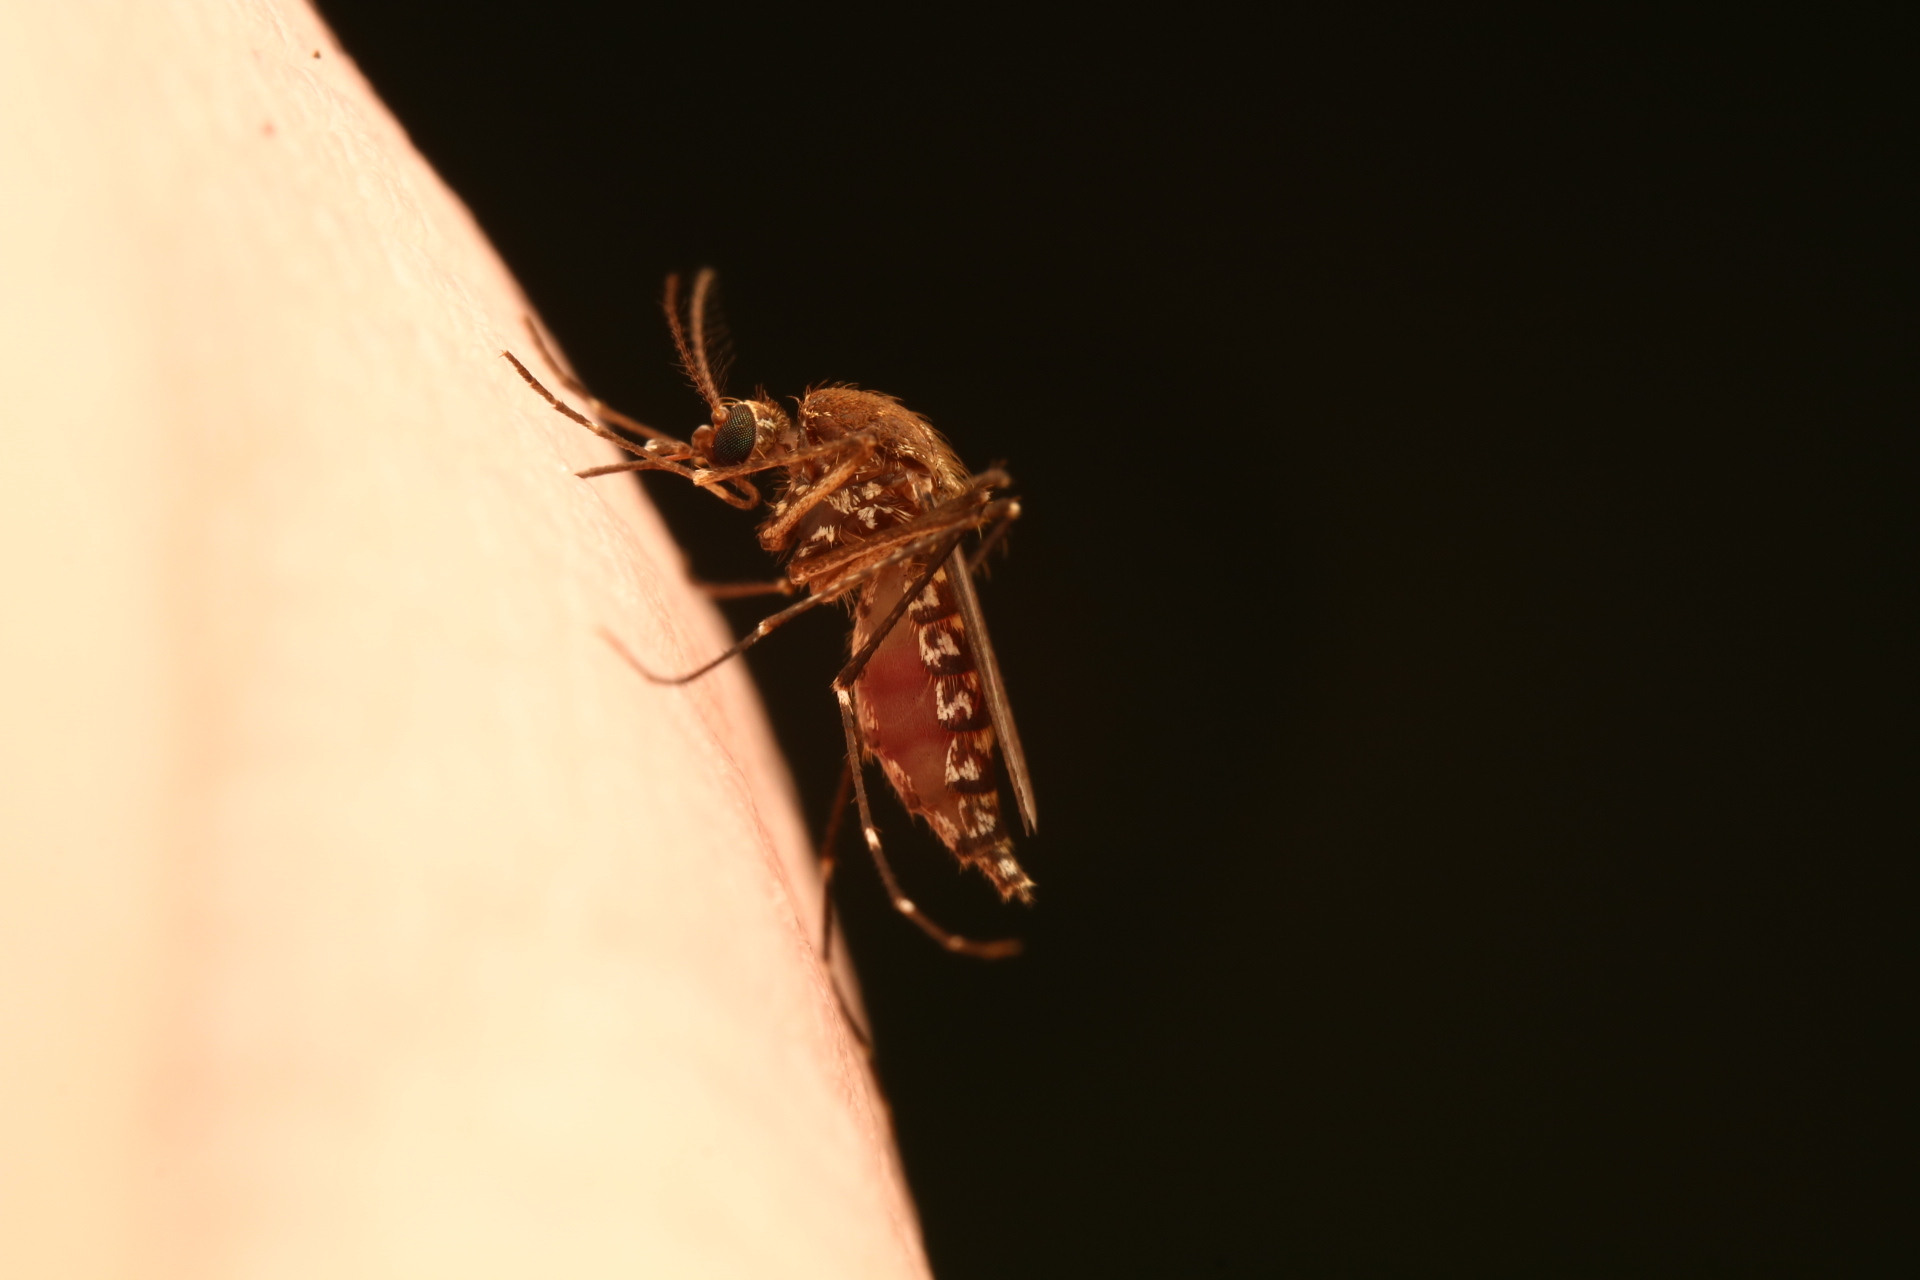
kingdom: Animalia
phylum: Arthropoda
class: Insecta
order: Diptera
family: Culicidae
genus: Aedes
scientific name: Aedes taeniorhynchus
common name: Black salt marsh mosquito
